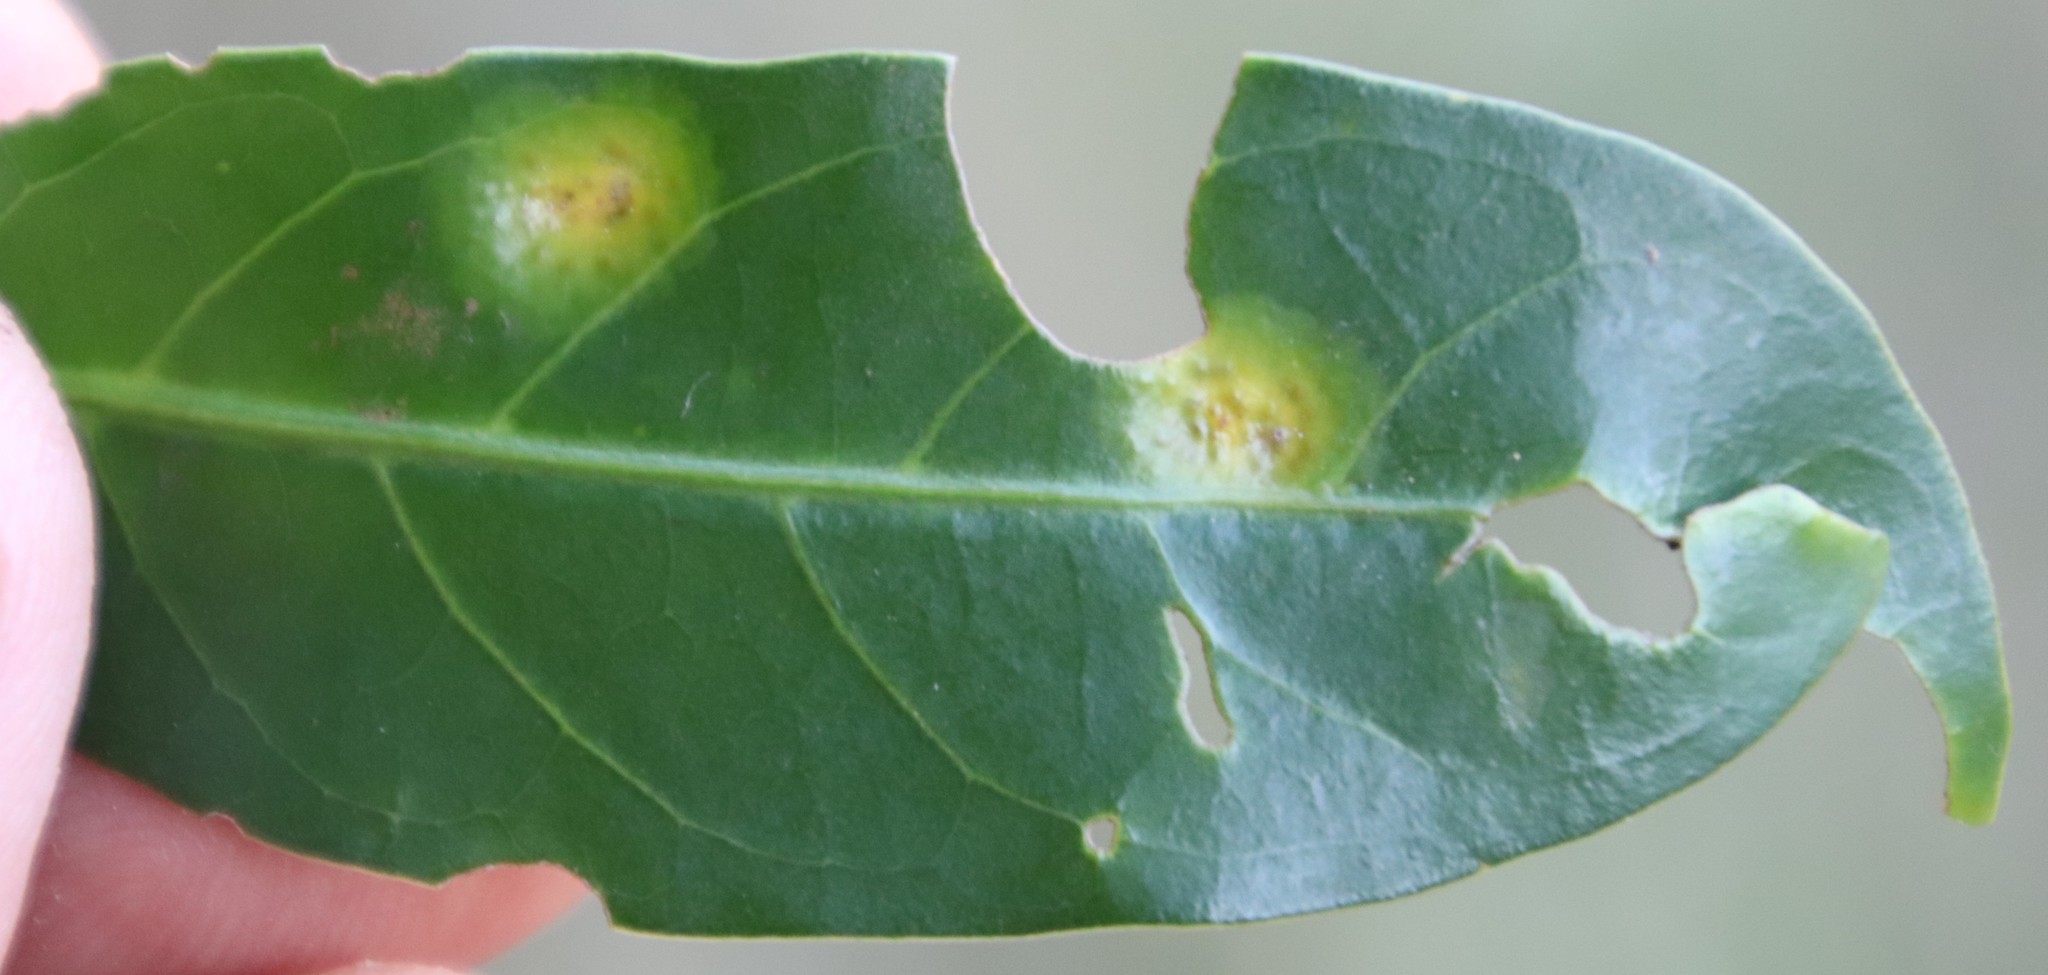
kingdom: Plantae
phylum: Tracheophyta
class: Magnoliopsida
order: Gentianales
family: Rubiaceae
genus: Kraussia
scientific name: Kraussia floribunda
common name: Rhino-coffee
